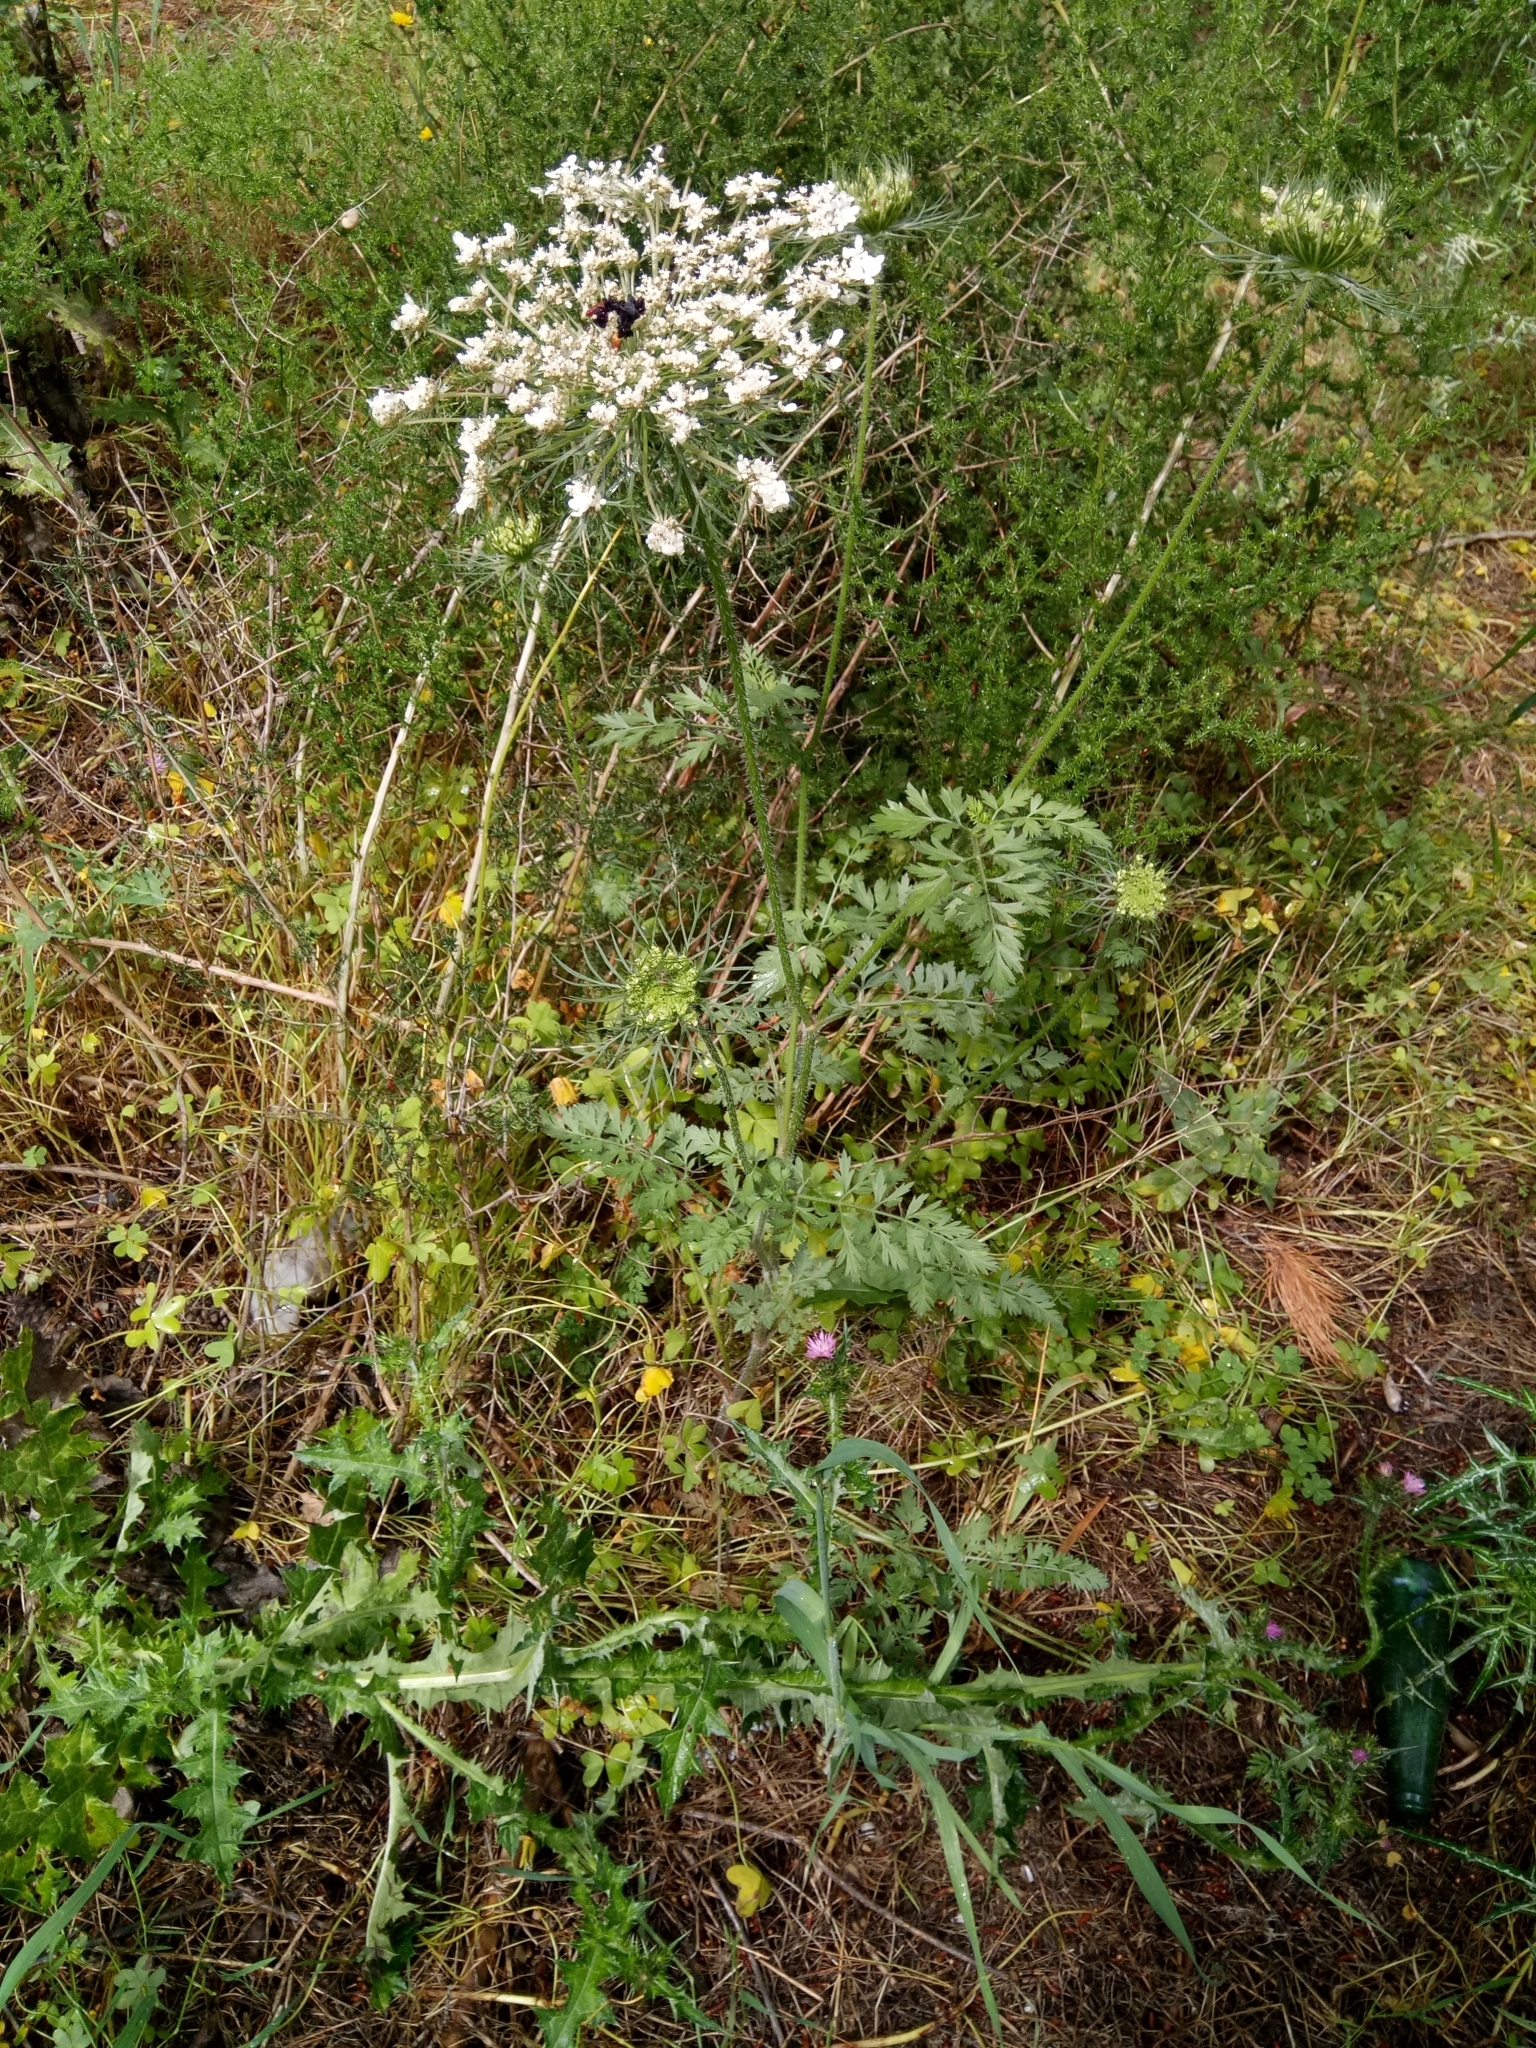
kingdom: Plantae
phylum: Tracheophyta
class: Magnoliopsida
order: Apiales
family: Apiaceae
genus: Daucus
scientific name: Daucus carota
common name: Wild carrot
